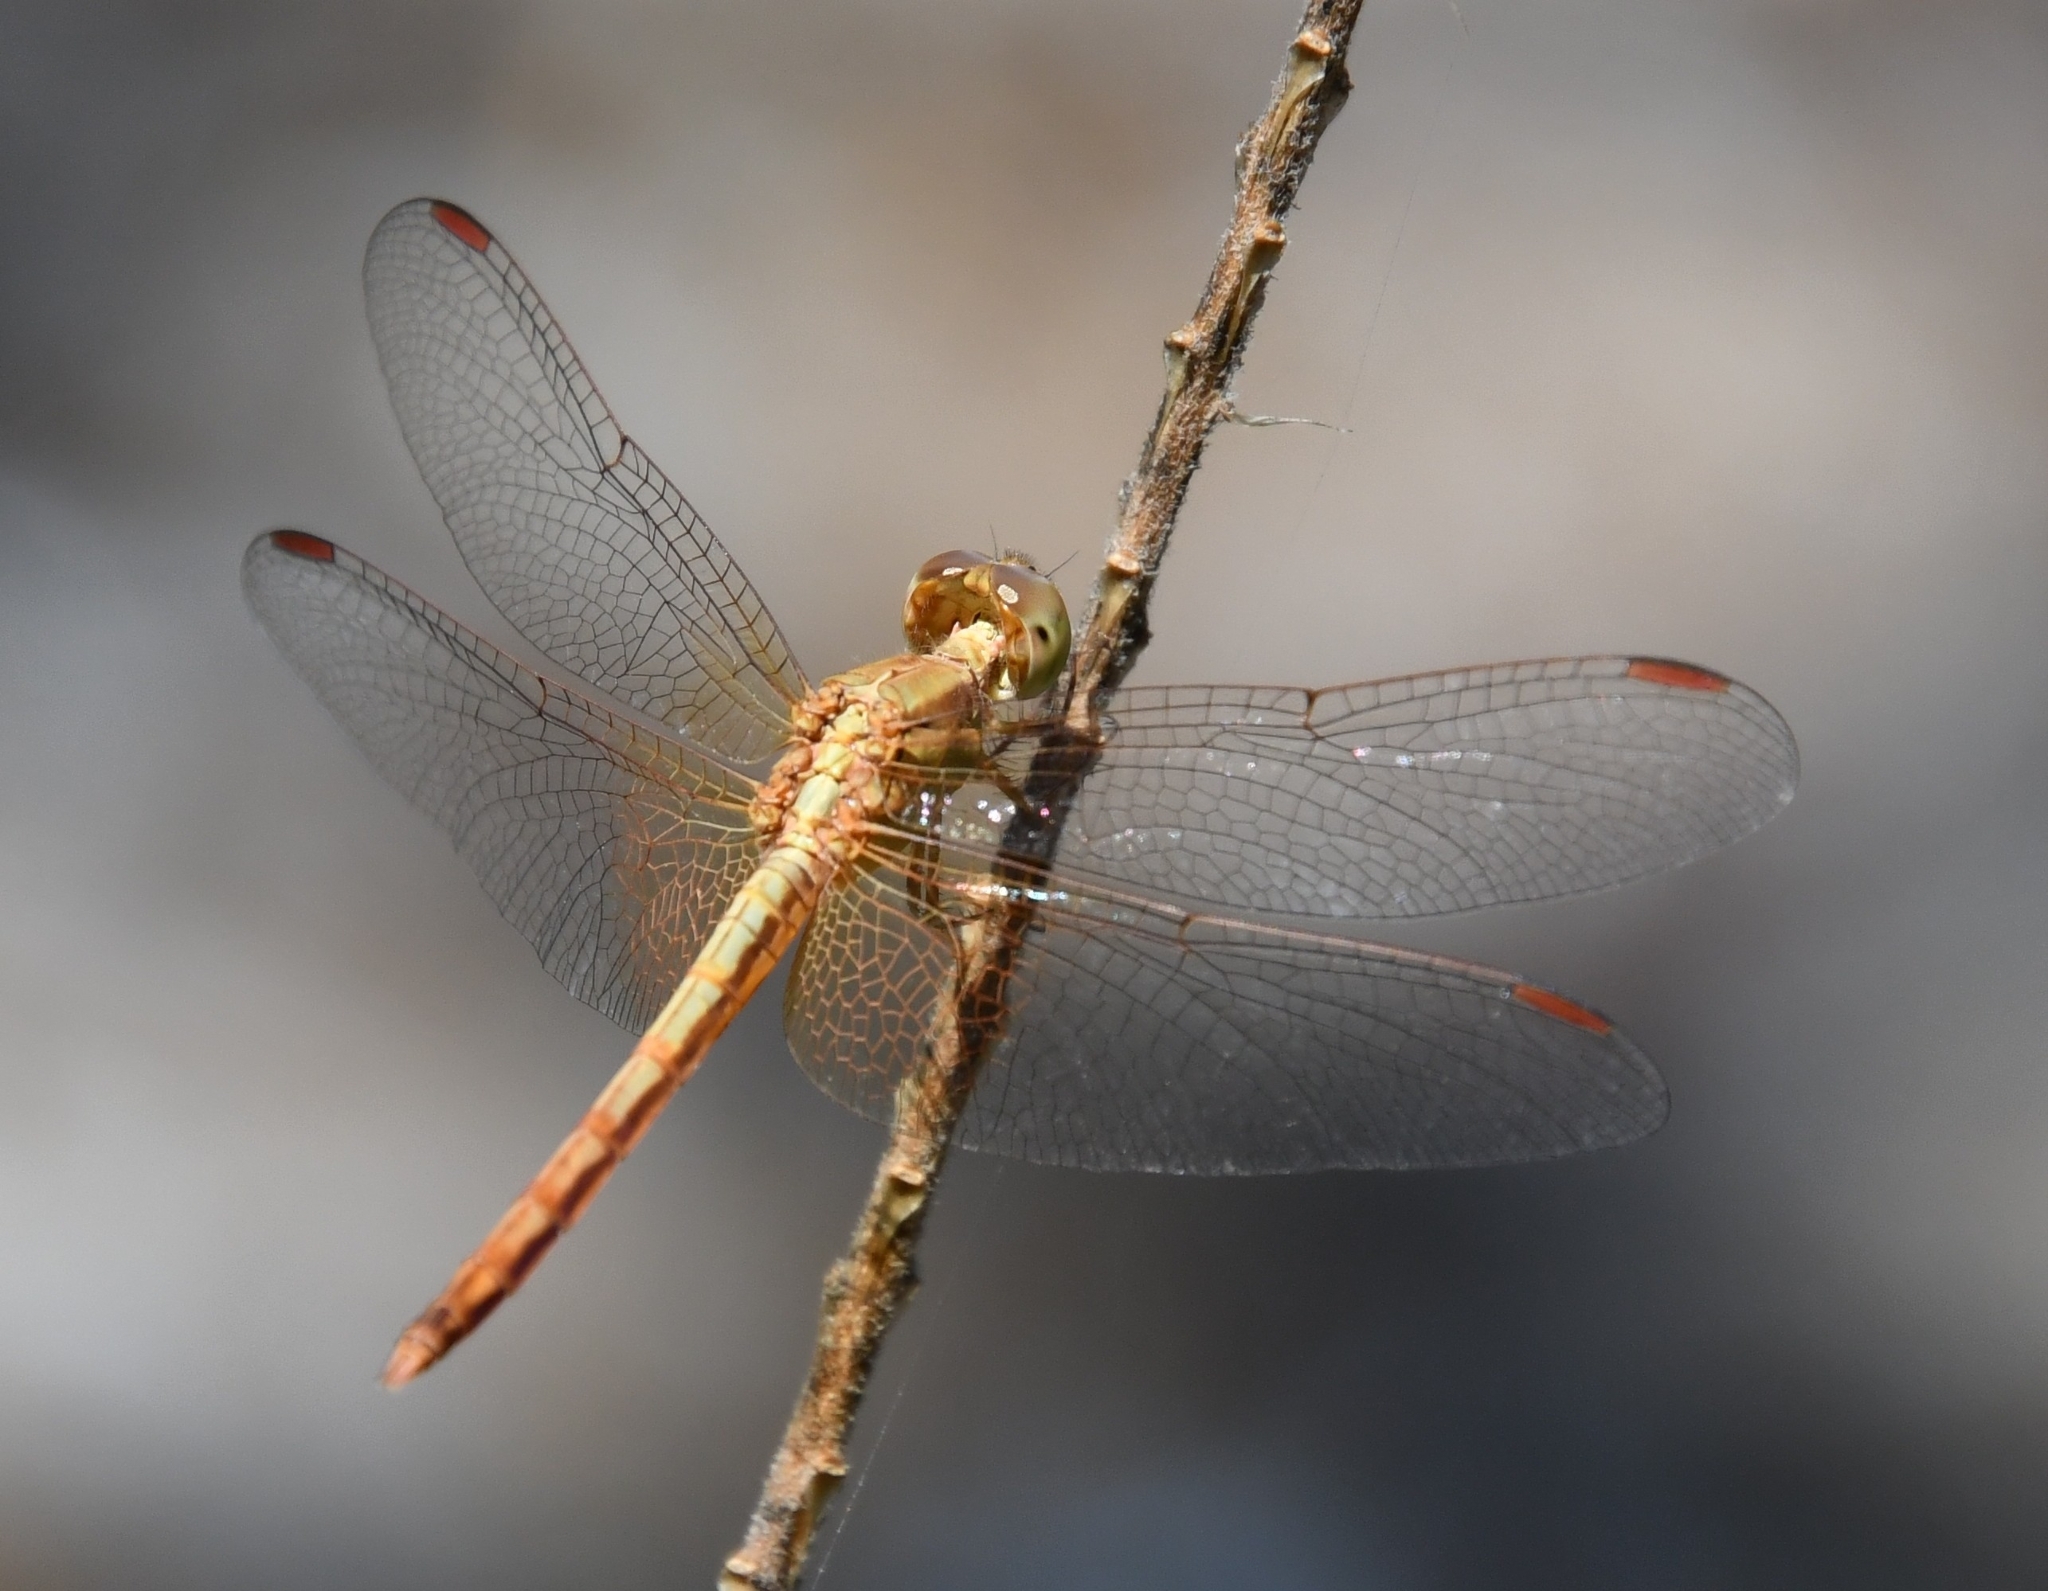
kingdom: Animalia
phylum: Arthropoda
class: Insecta
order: Odonata
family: Libellulidae
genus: Neurothemis
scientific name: Neurothemis intermedia
